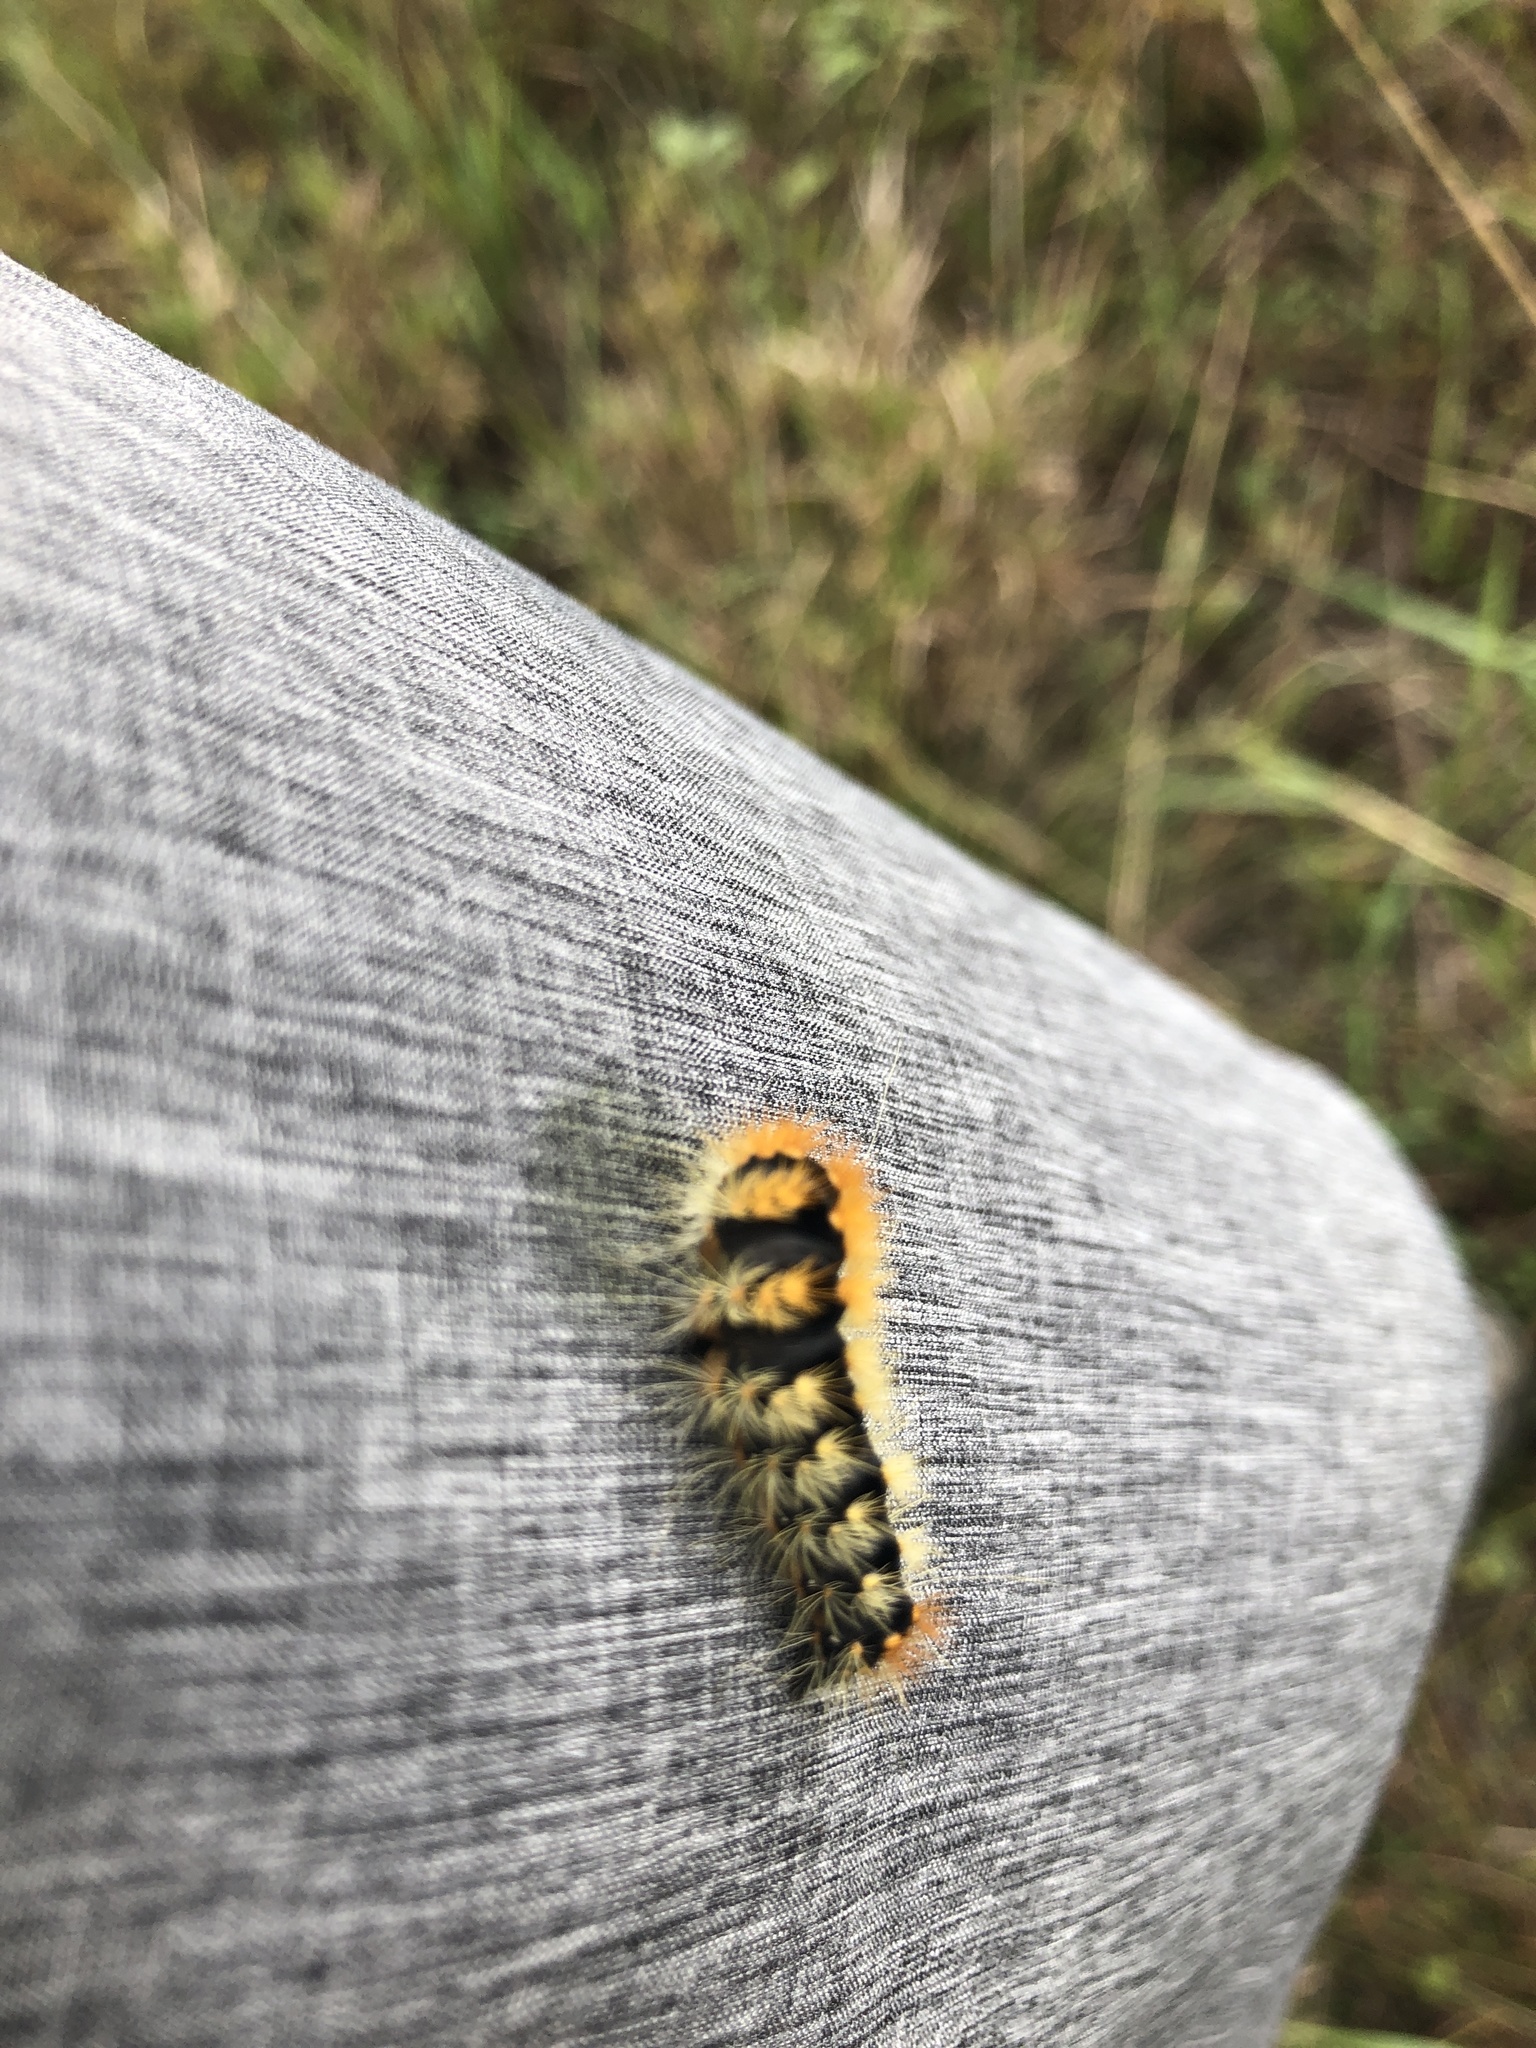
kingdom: Animalia
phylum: Arthropoda
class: Insecta
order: Lepidoptera
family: Noctuidae
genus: Acronicta
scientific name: Acronicta impressa
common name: Impressed dagger
